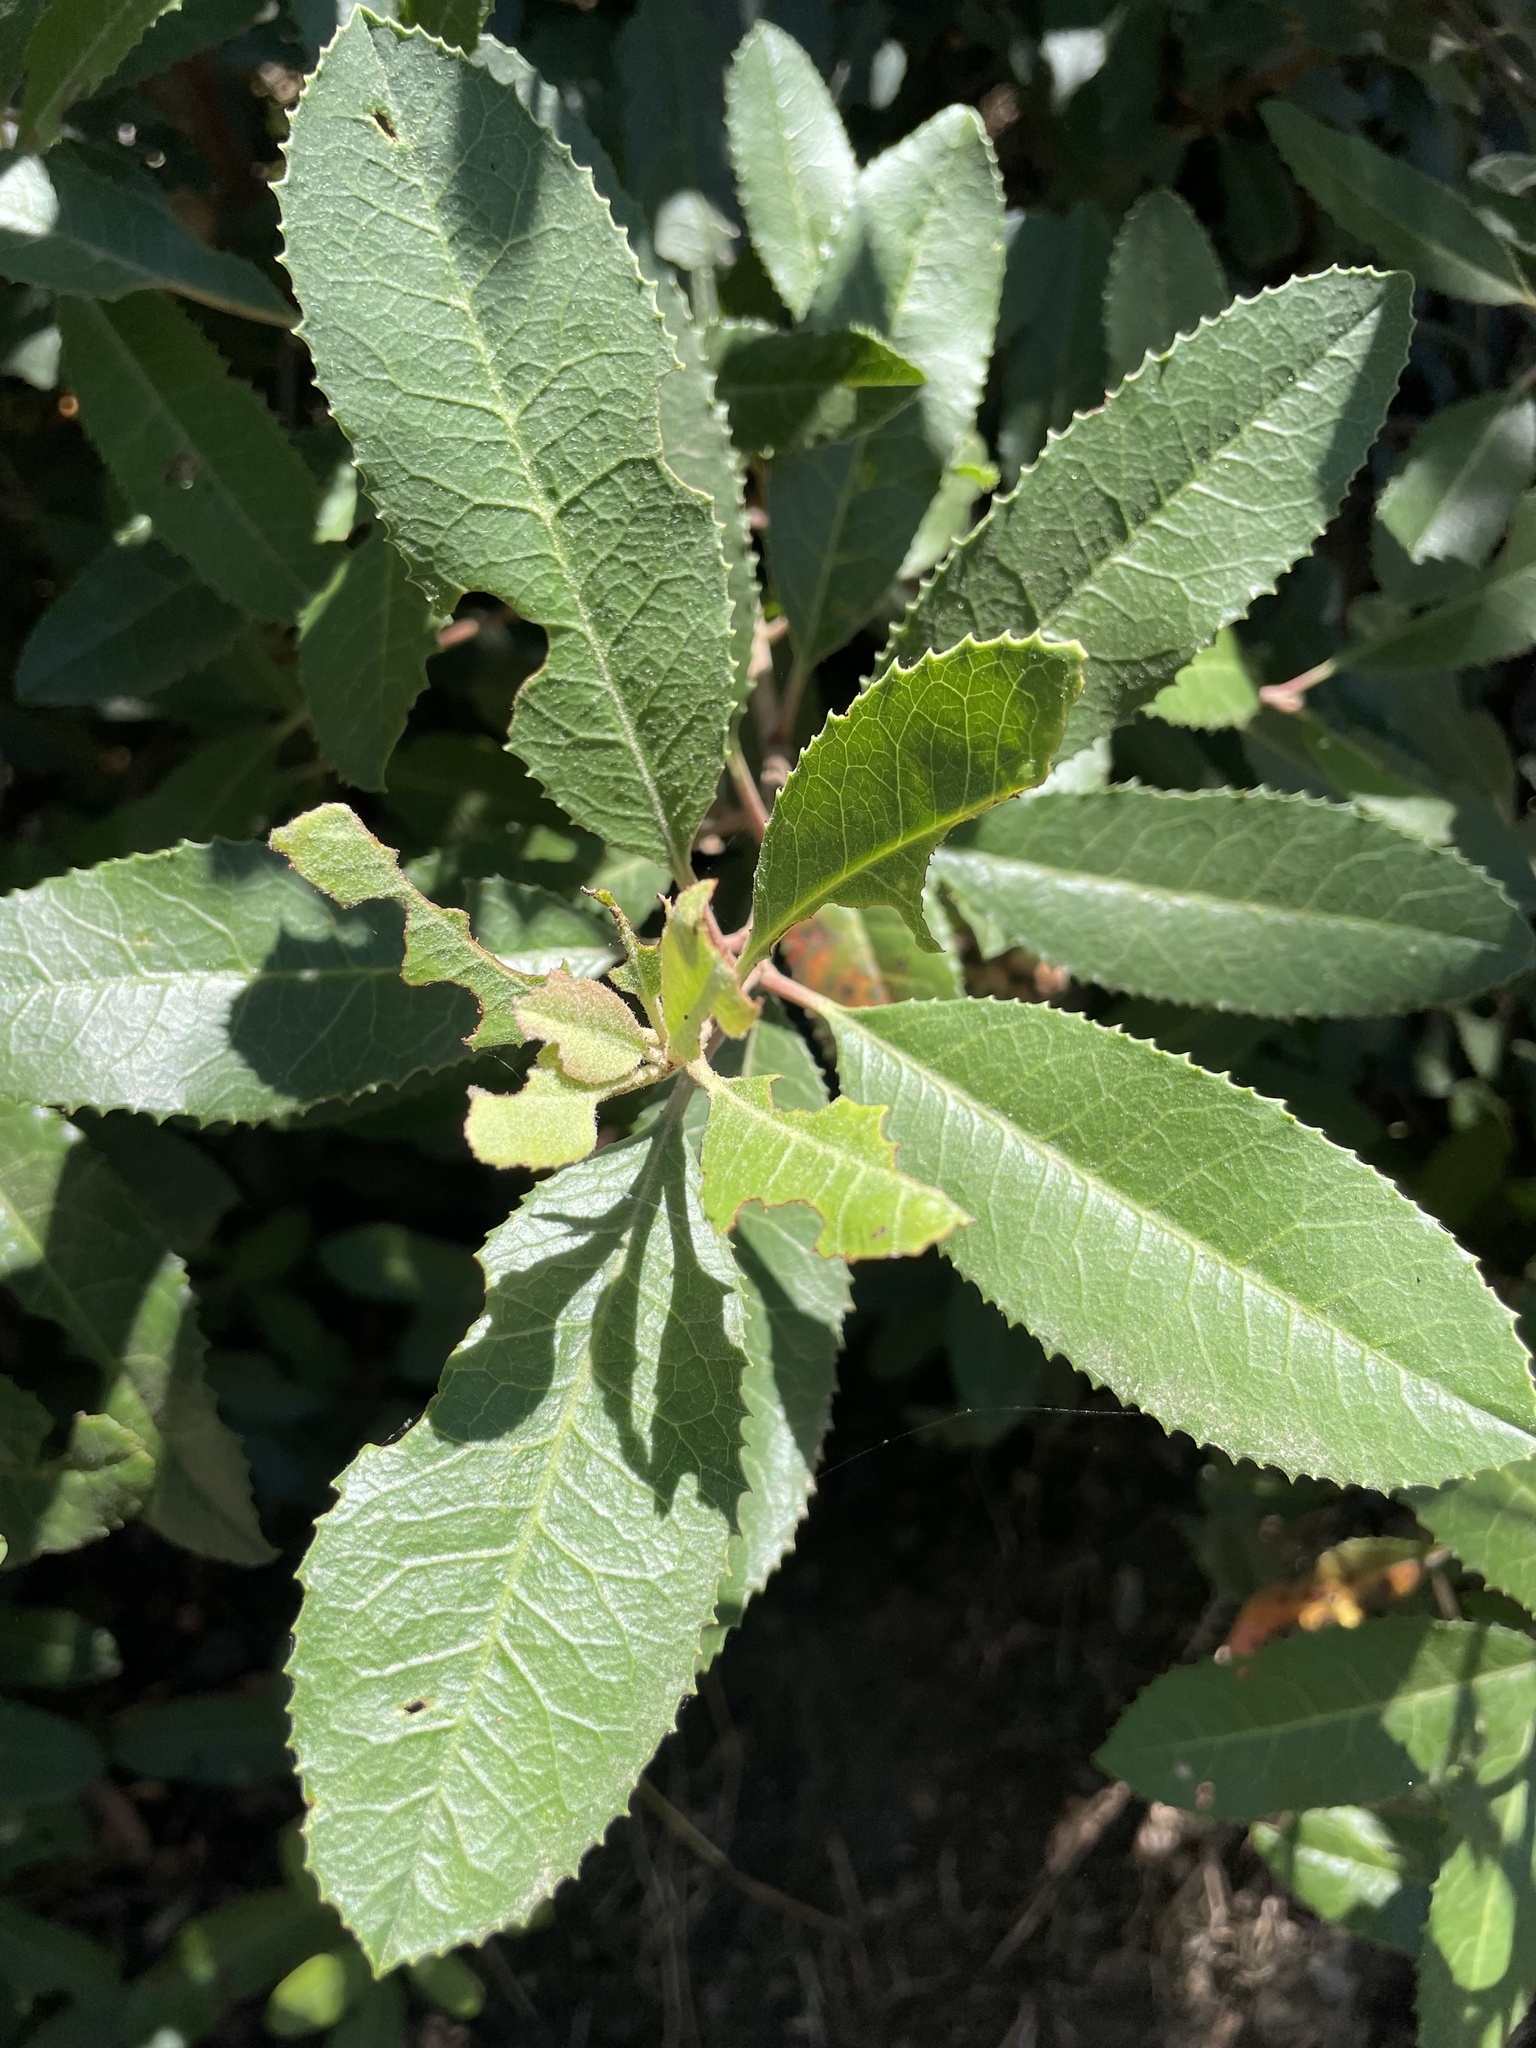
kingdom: Plantae
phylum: Tracheophyta
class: Magnoliopsida
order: Rosales
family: Rosaceae
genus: Heteromeles
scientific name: Heteromeles arbutifolia
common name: California-holly
